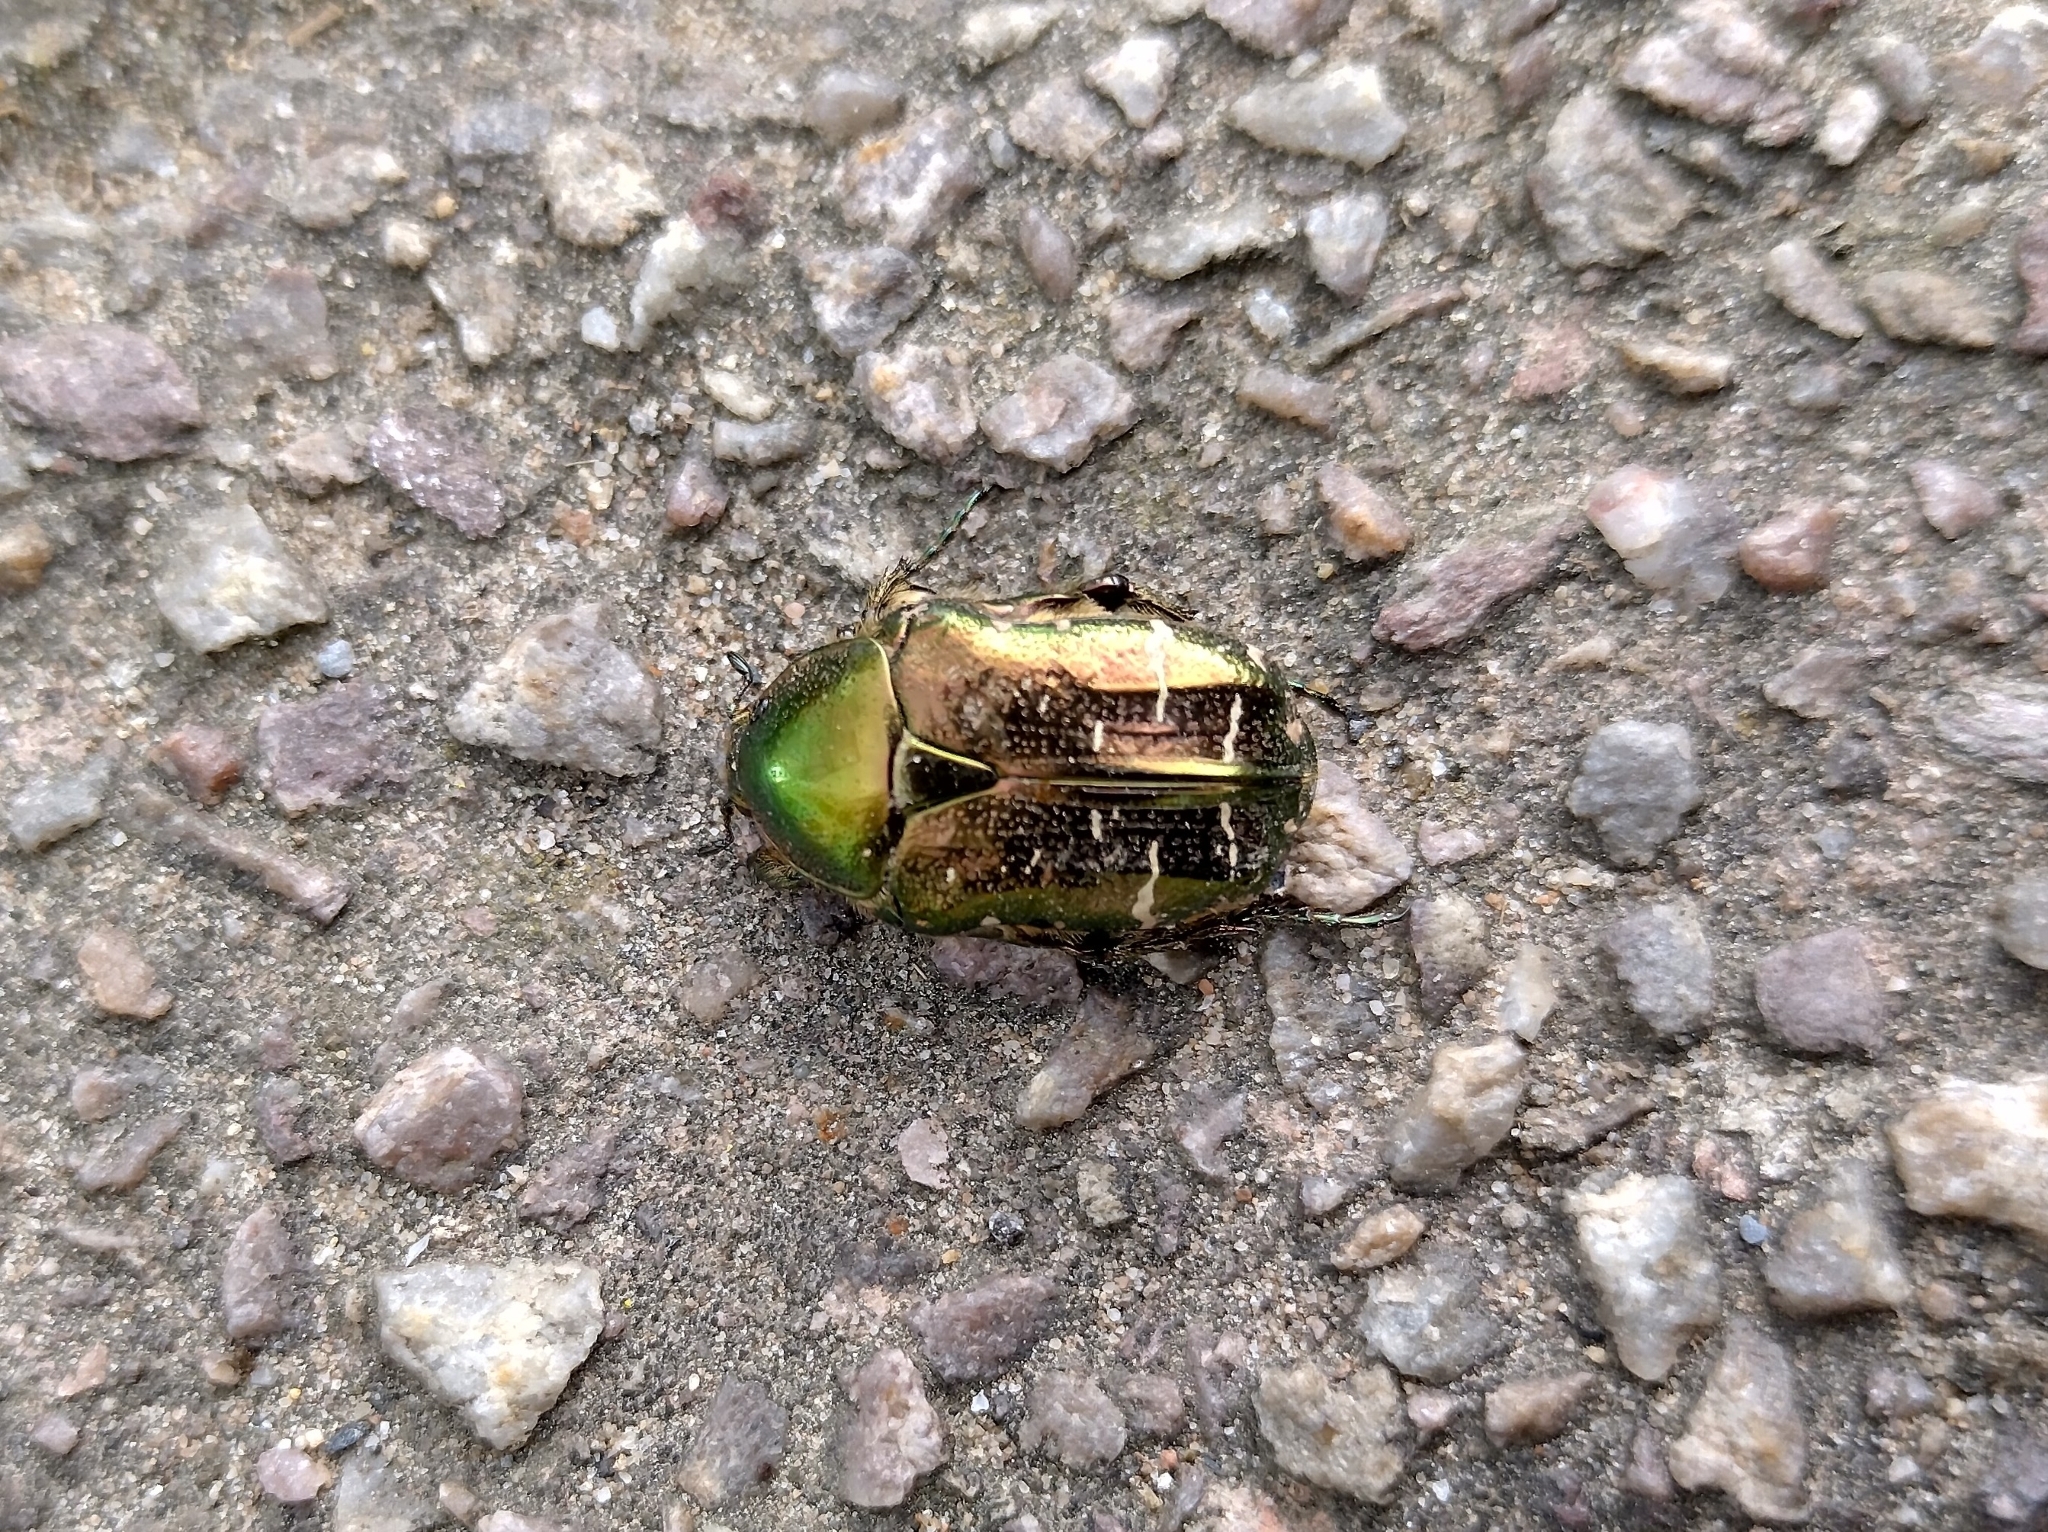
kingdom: Animalia
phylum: Arthropoda
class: Insecta
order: Coleoptera
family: Scarabaeidae
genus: Cetonia
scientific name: Cetonia aurata
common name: Rose chafer
